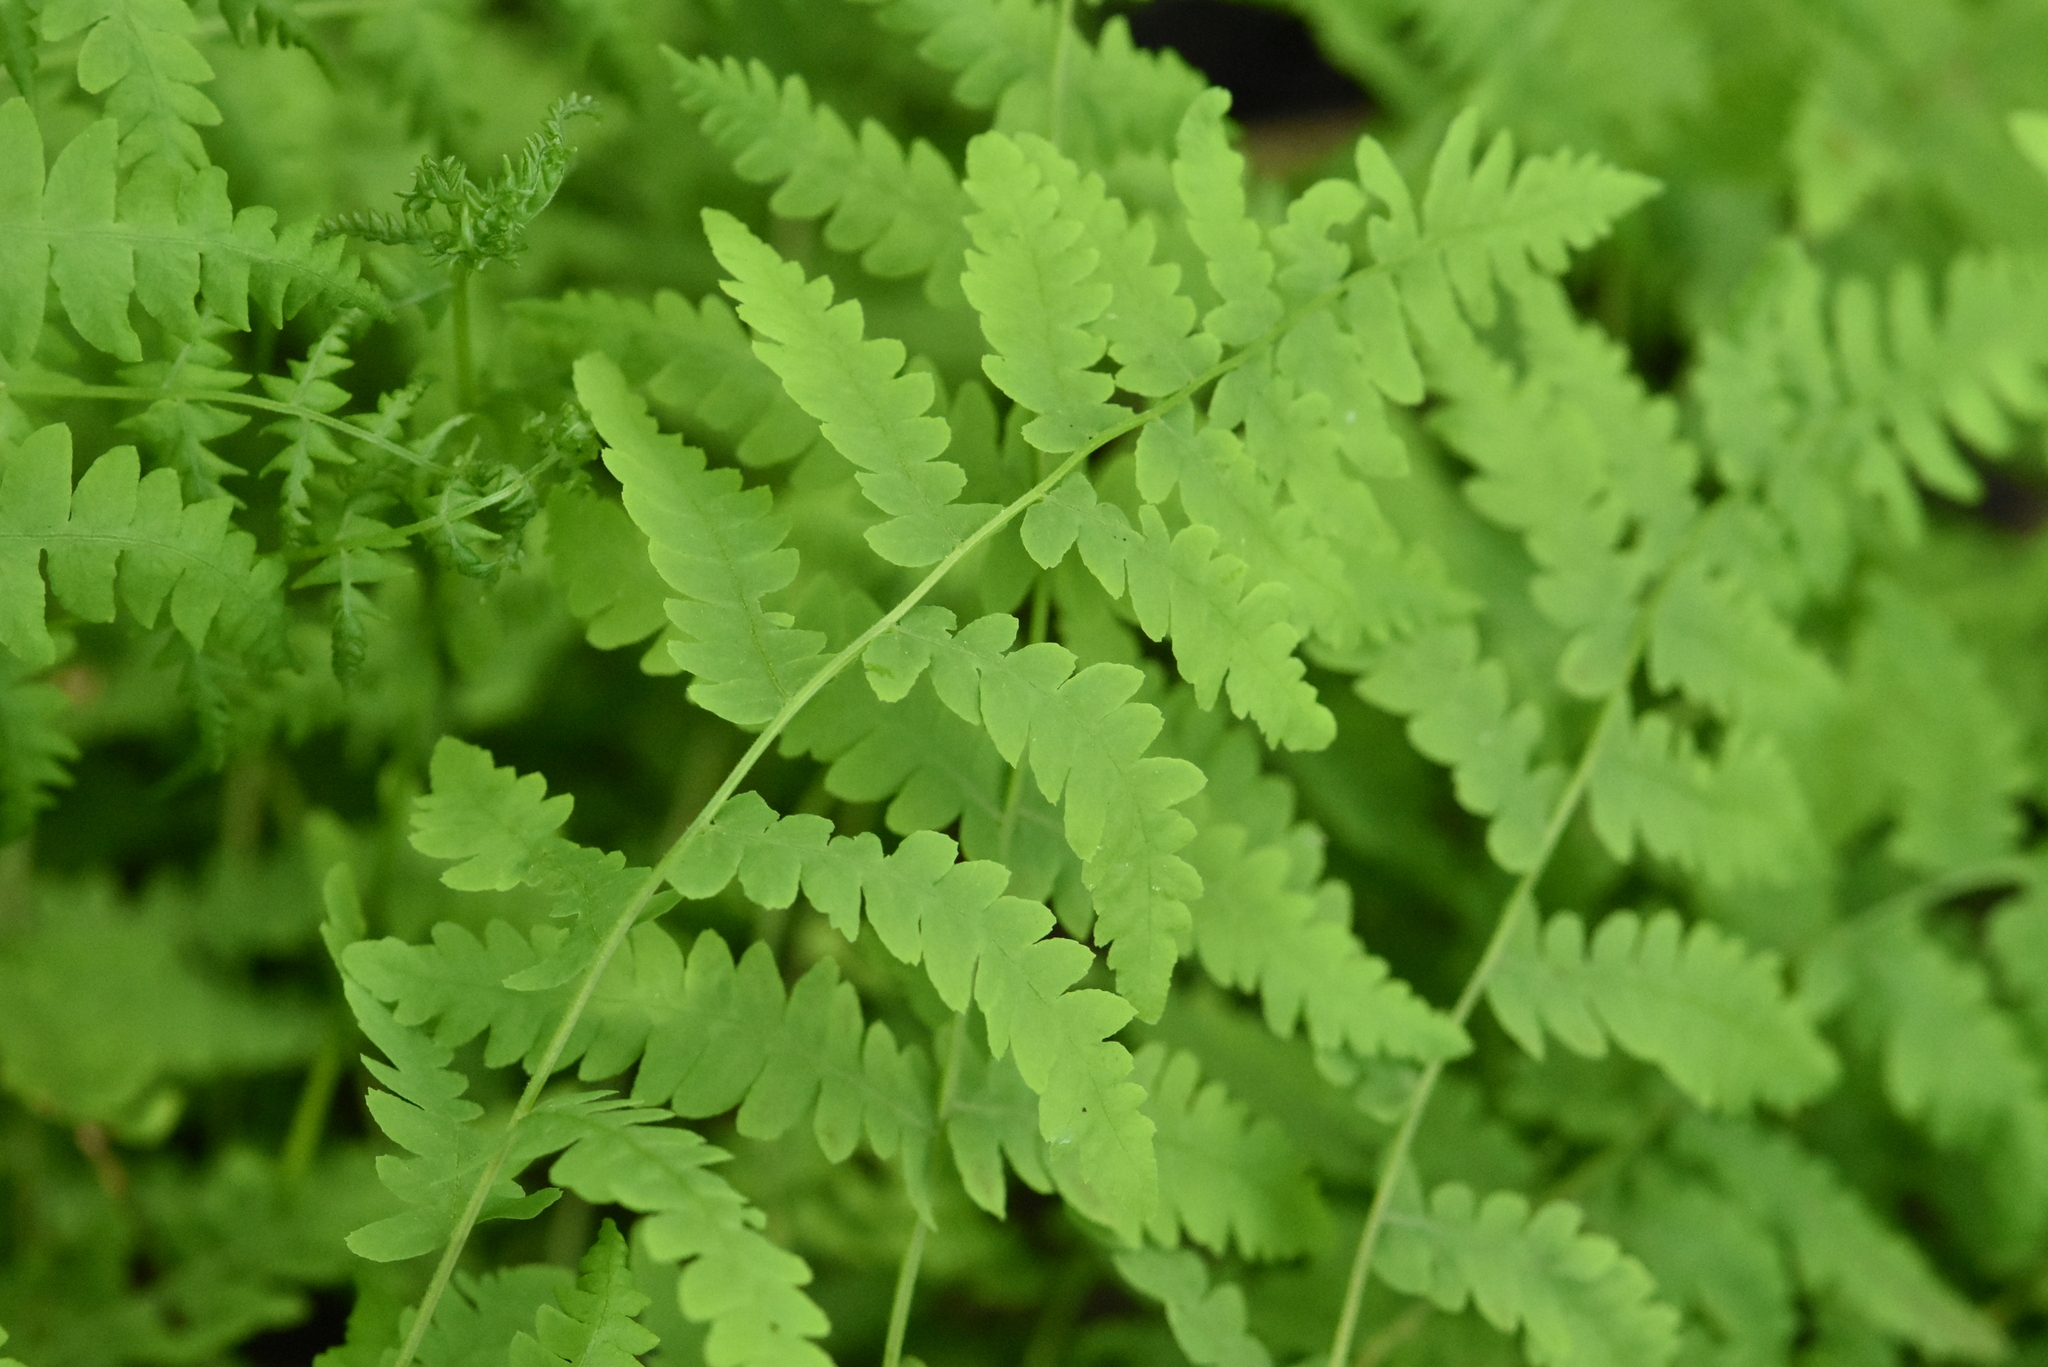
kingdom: Plantae
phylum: Tracheophyta
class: Polypodiopsida
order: Polypodiales
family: Thelypteridaceae
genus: Thelypteris
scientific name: Thelypteris palustris
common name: Marsh fern
